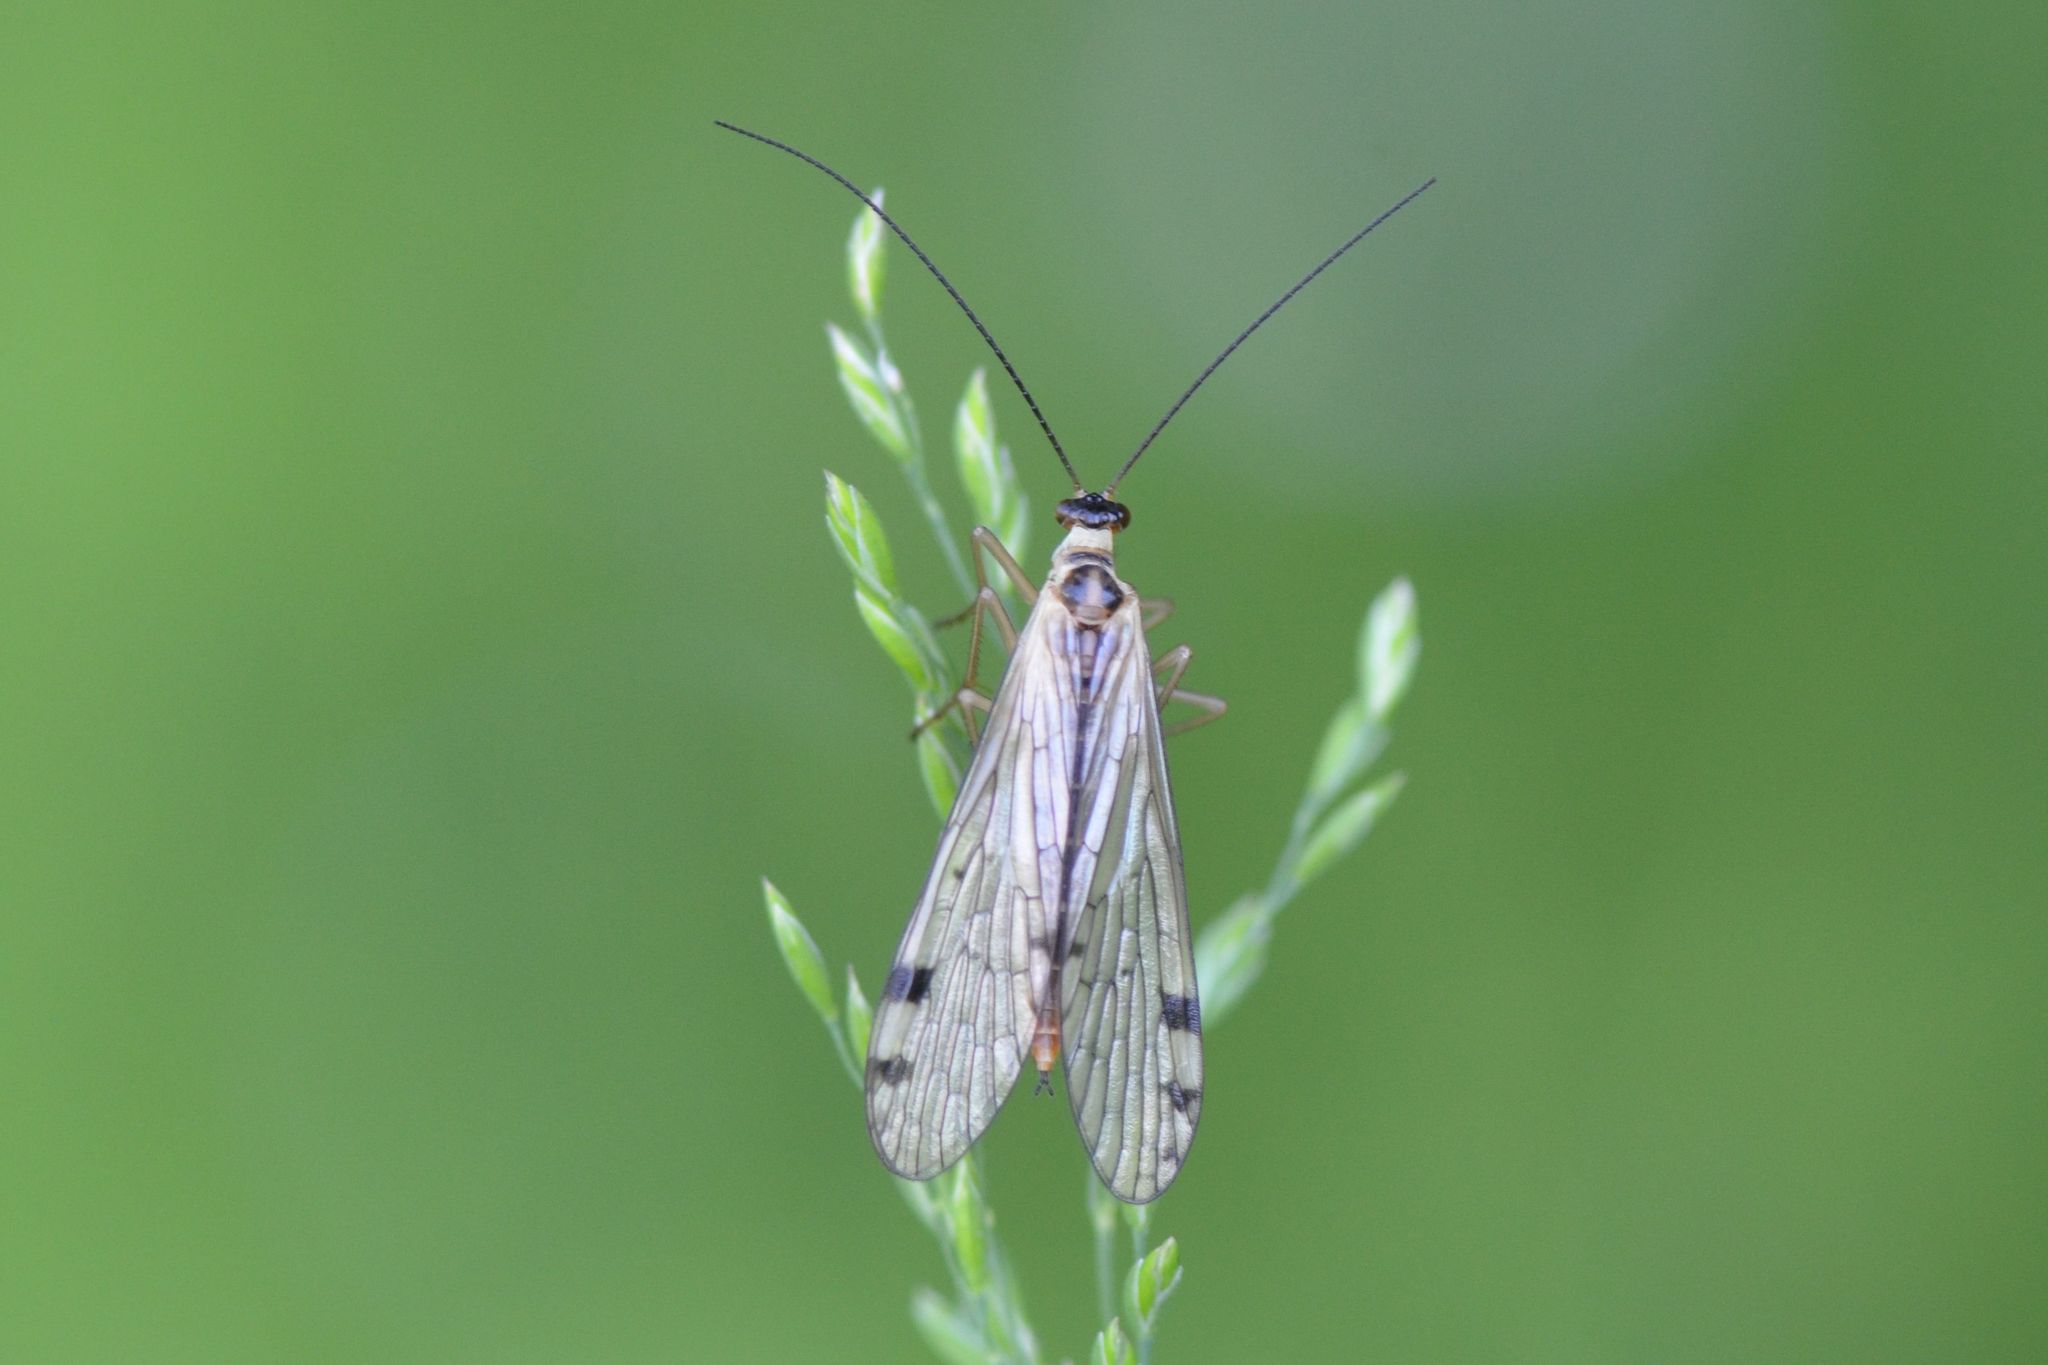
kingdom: Animalia
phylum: Arthropoda
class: Insecta
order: Mecoptera
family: Panorpidae
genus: Panorpa
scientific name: Panorpa alpina
